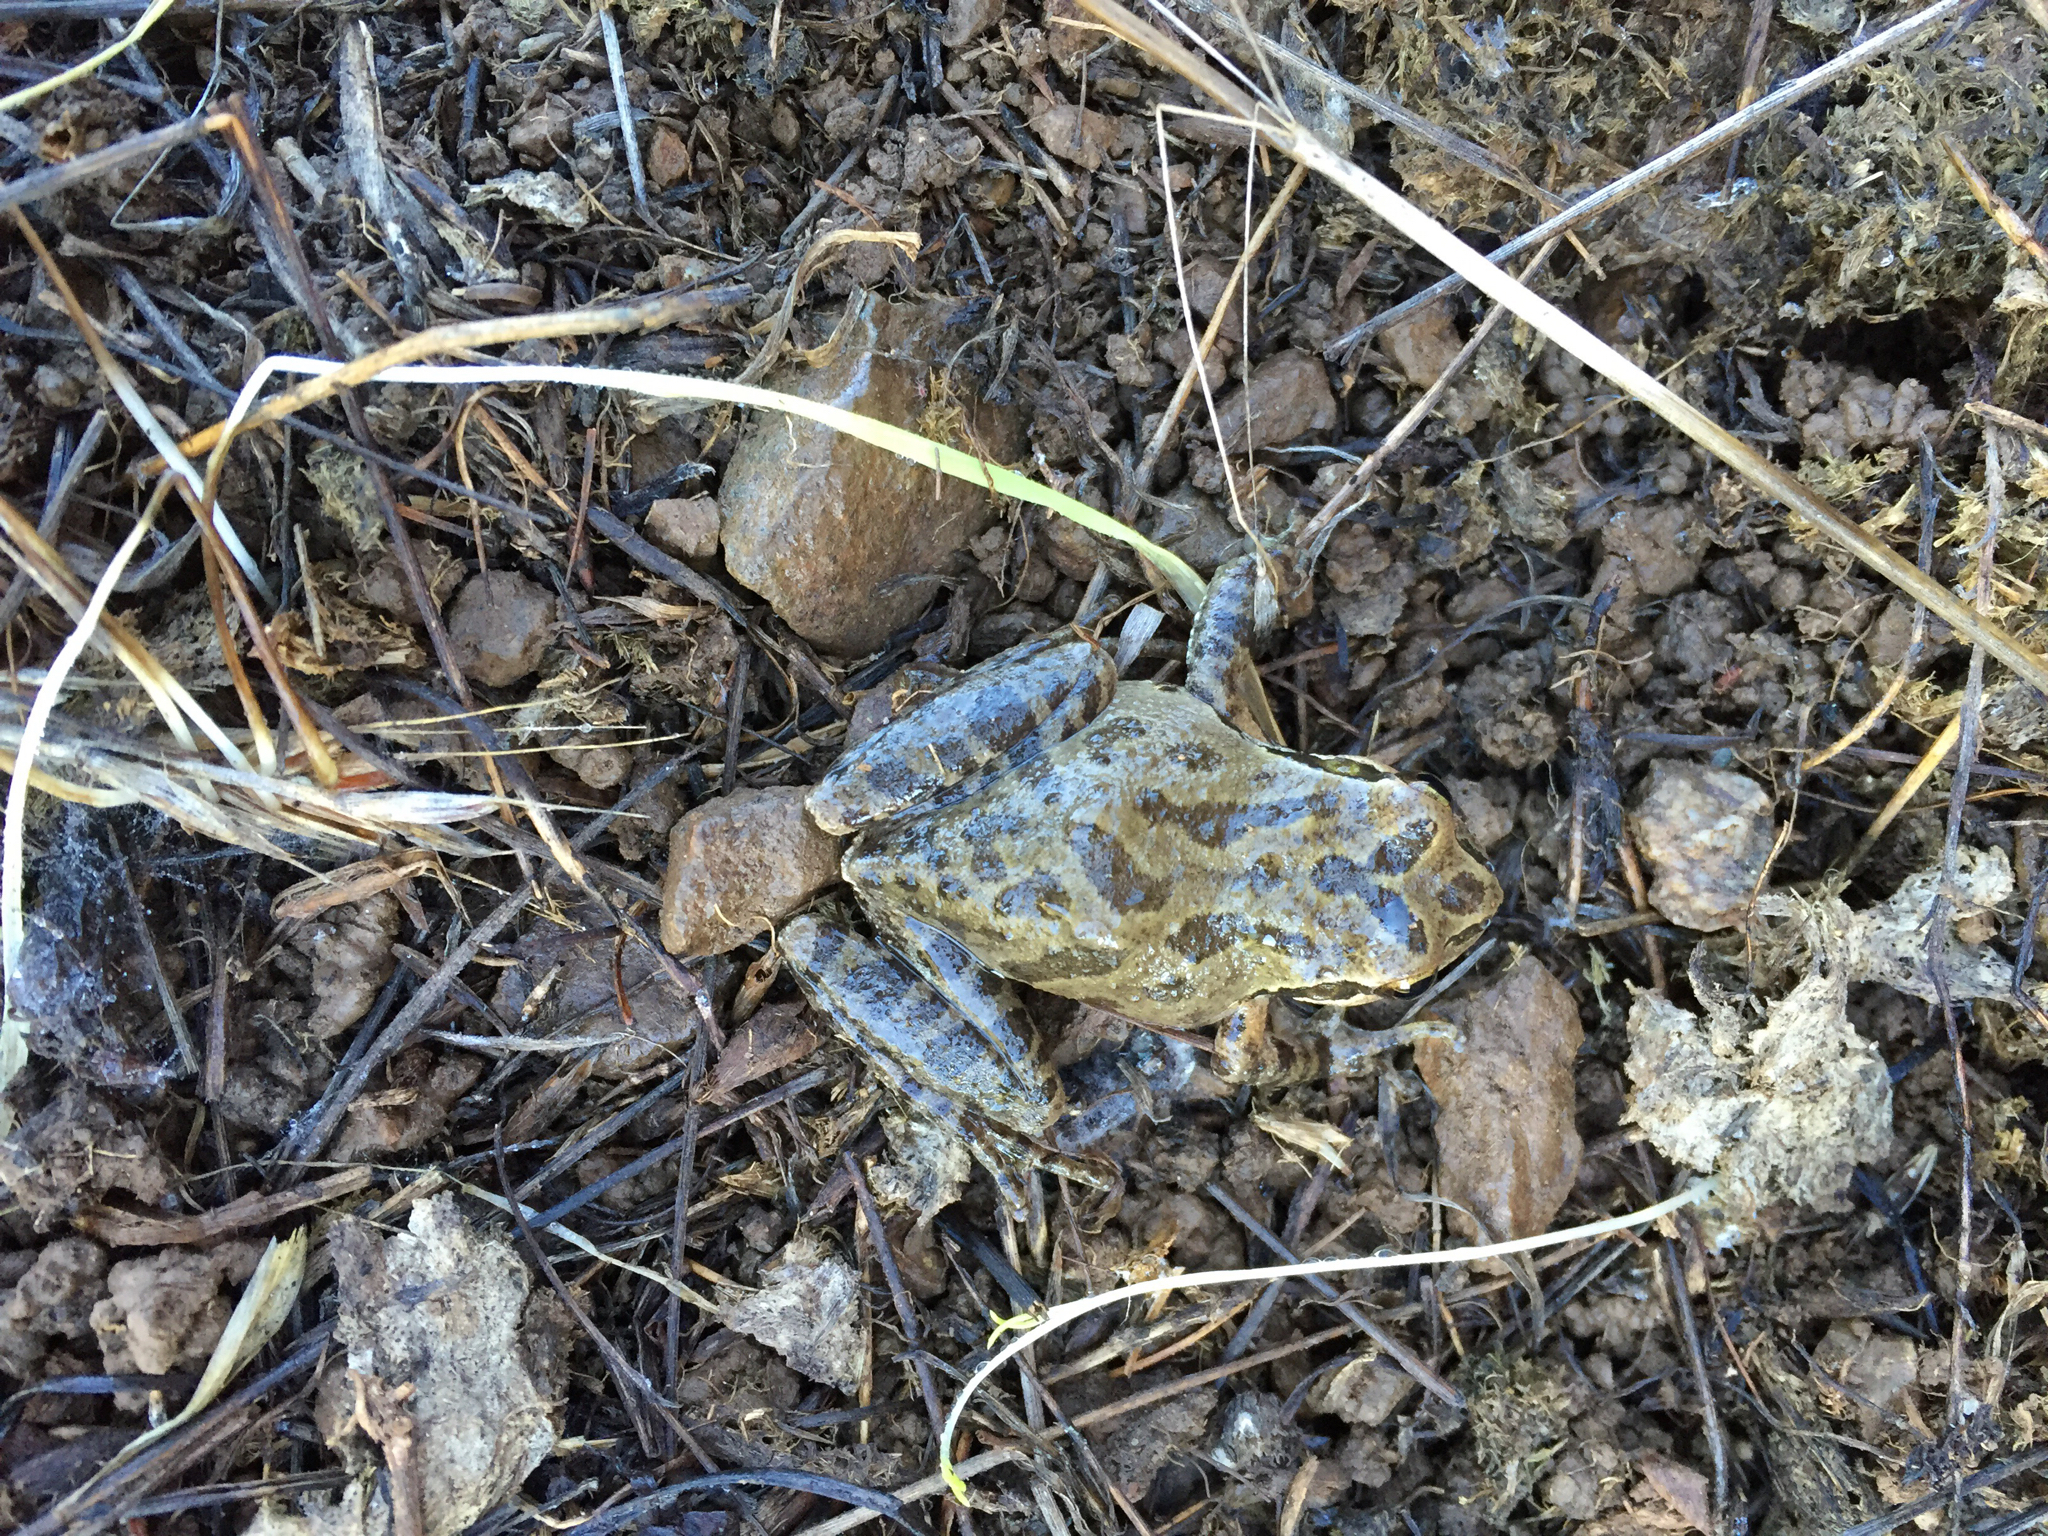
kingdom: Animalia
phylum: Chordata
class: Amphibia
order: Anura
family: Hylidae
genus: Pseudacris
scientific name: Pseudacris regilla
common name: Pacific chorus frog
